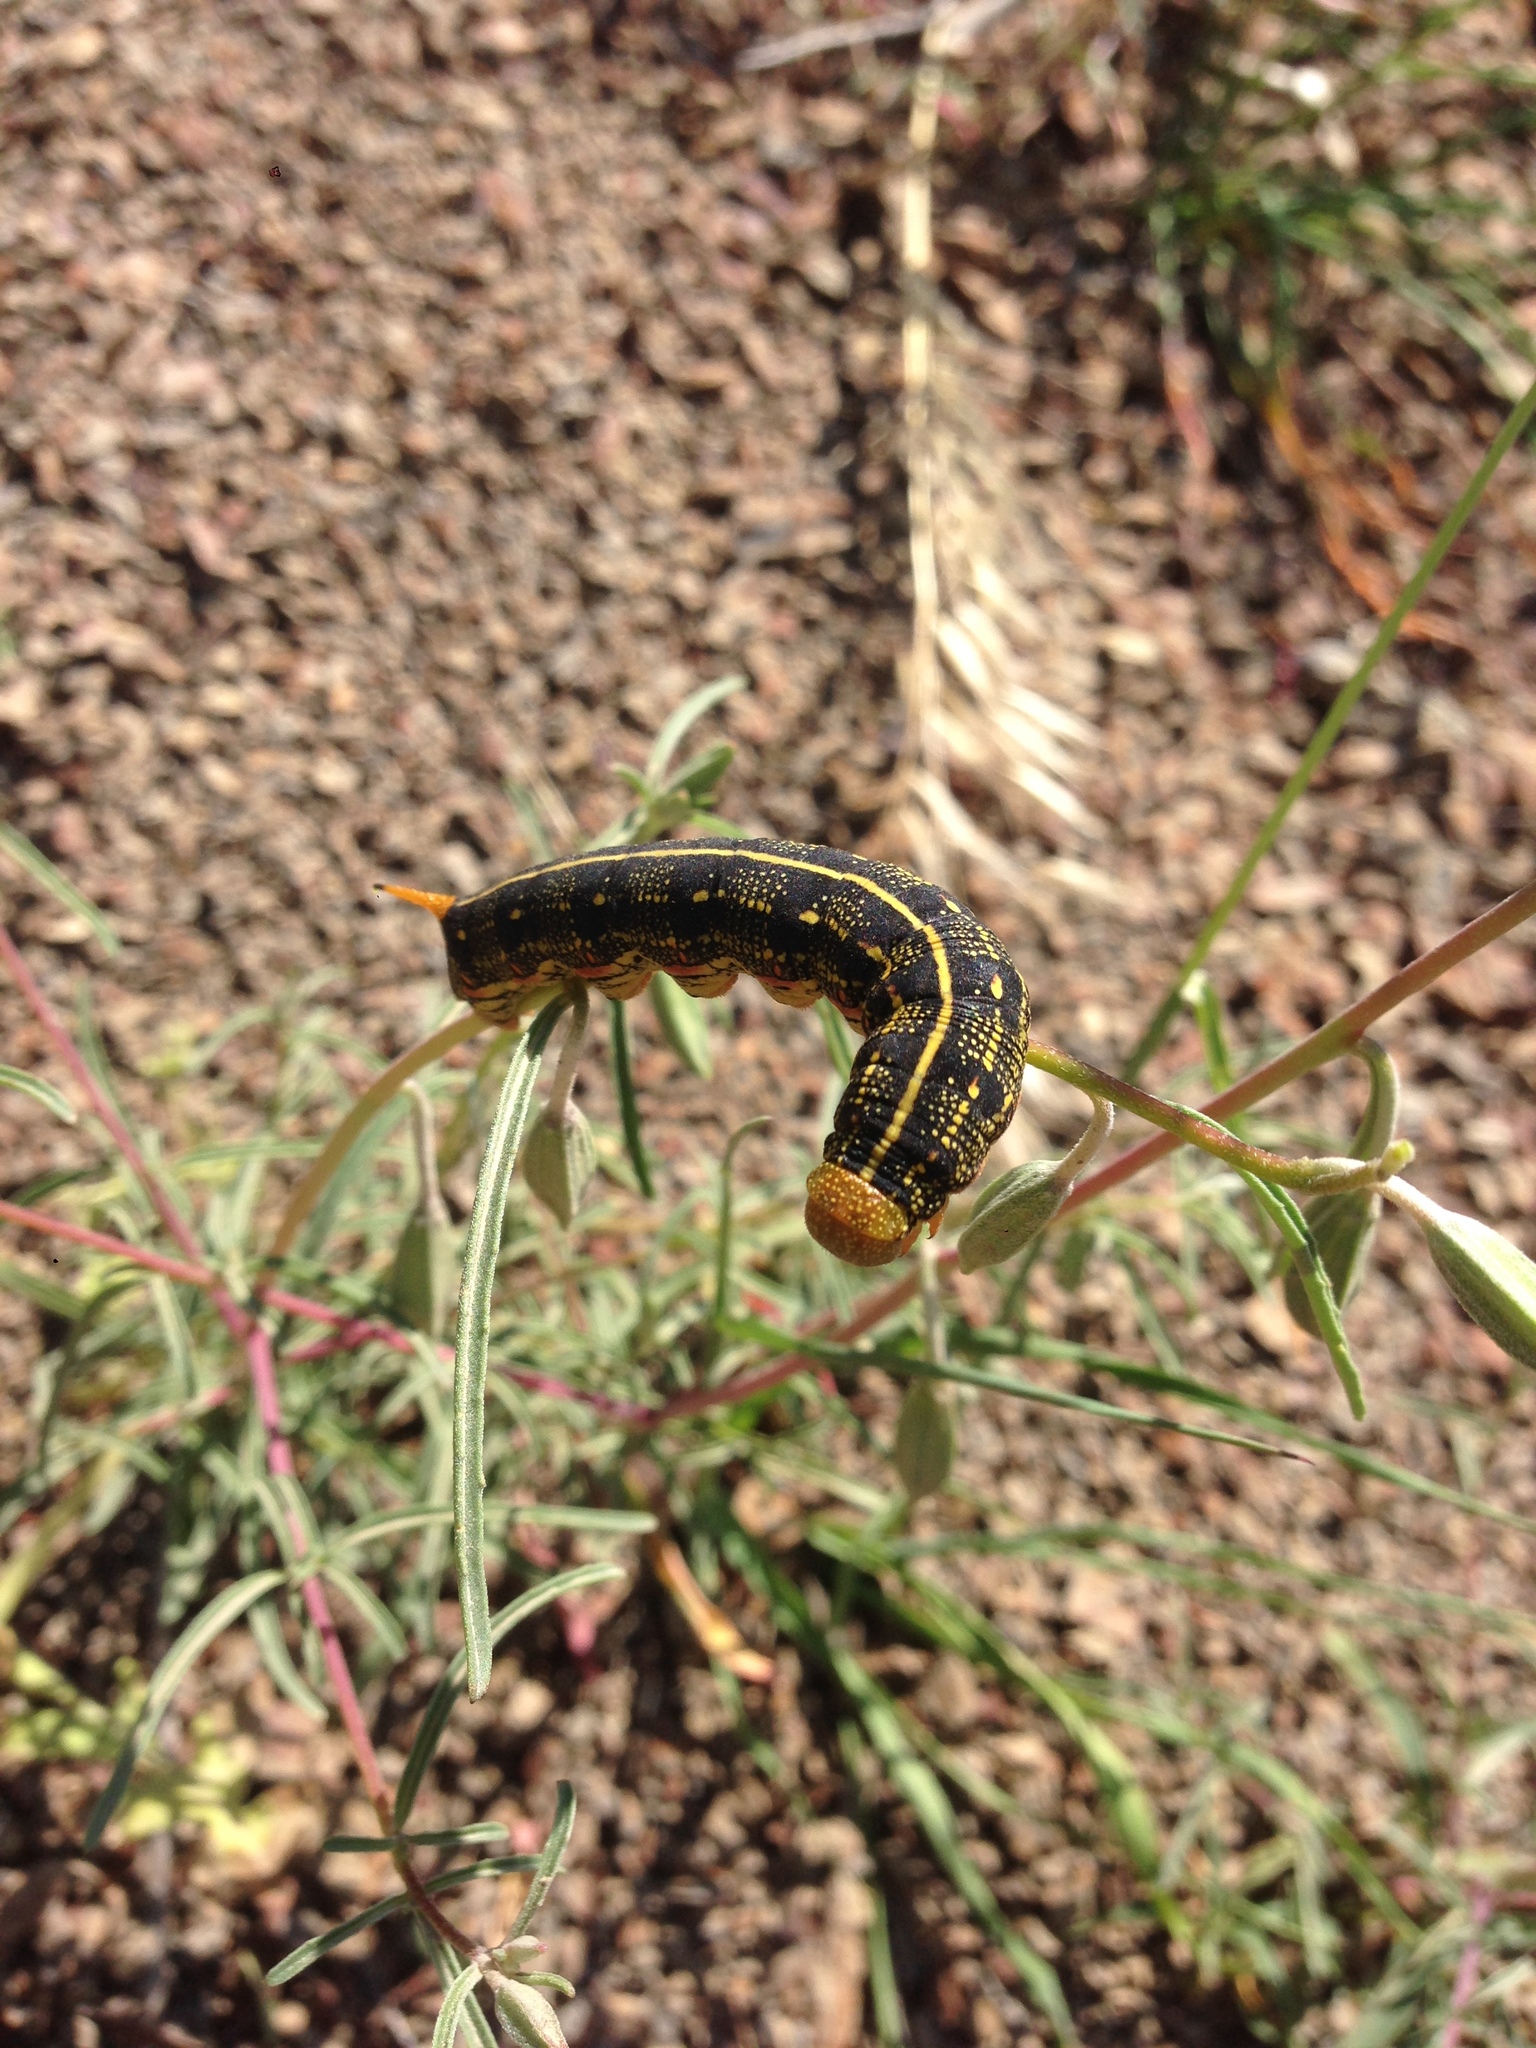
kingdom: Animalia
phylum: Arthropoda
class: Insecta
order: Lepidoptera
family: Sphingidae
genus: Hyles
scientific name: Hyles lineata
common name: White-lined sphinx
